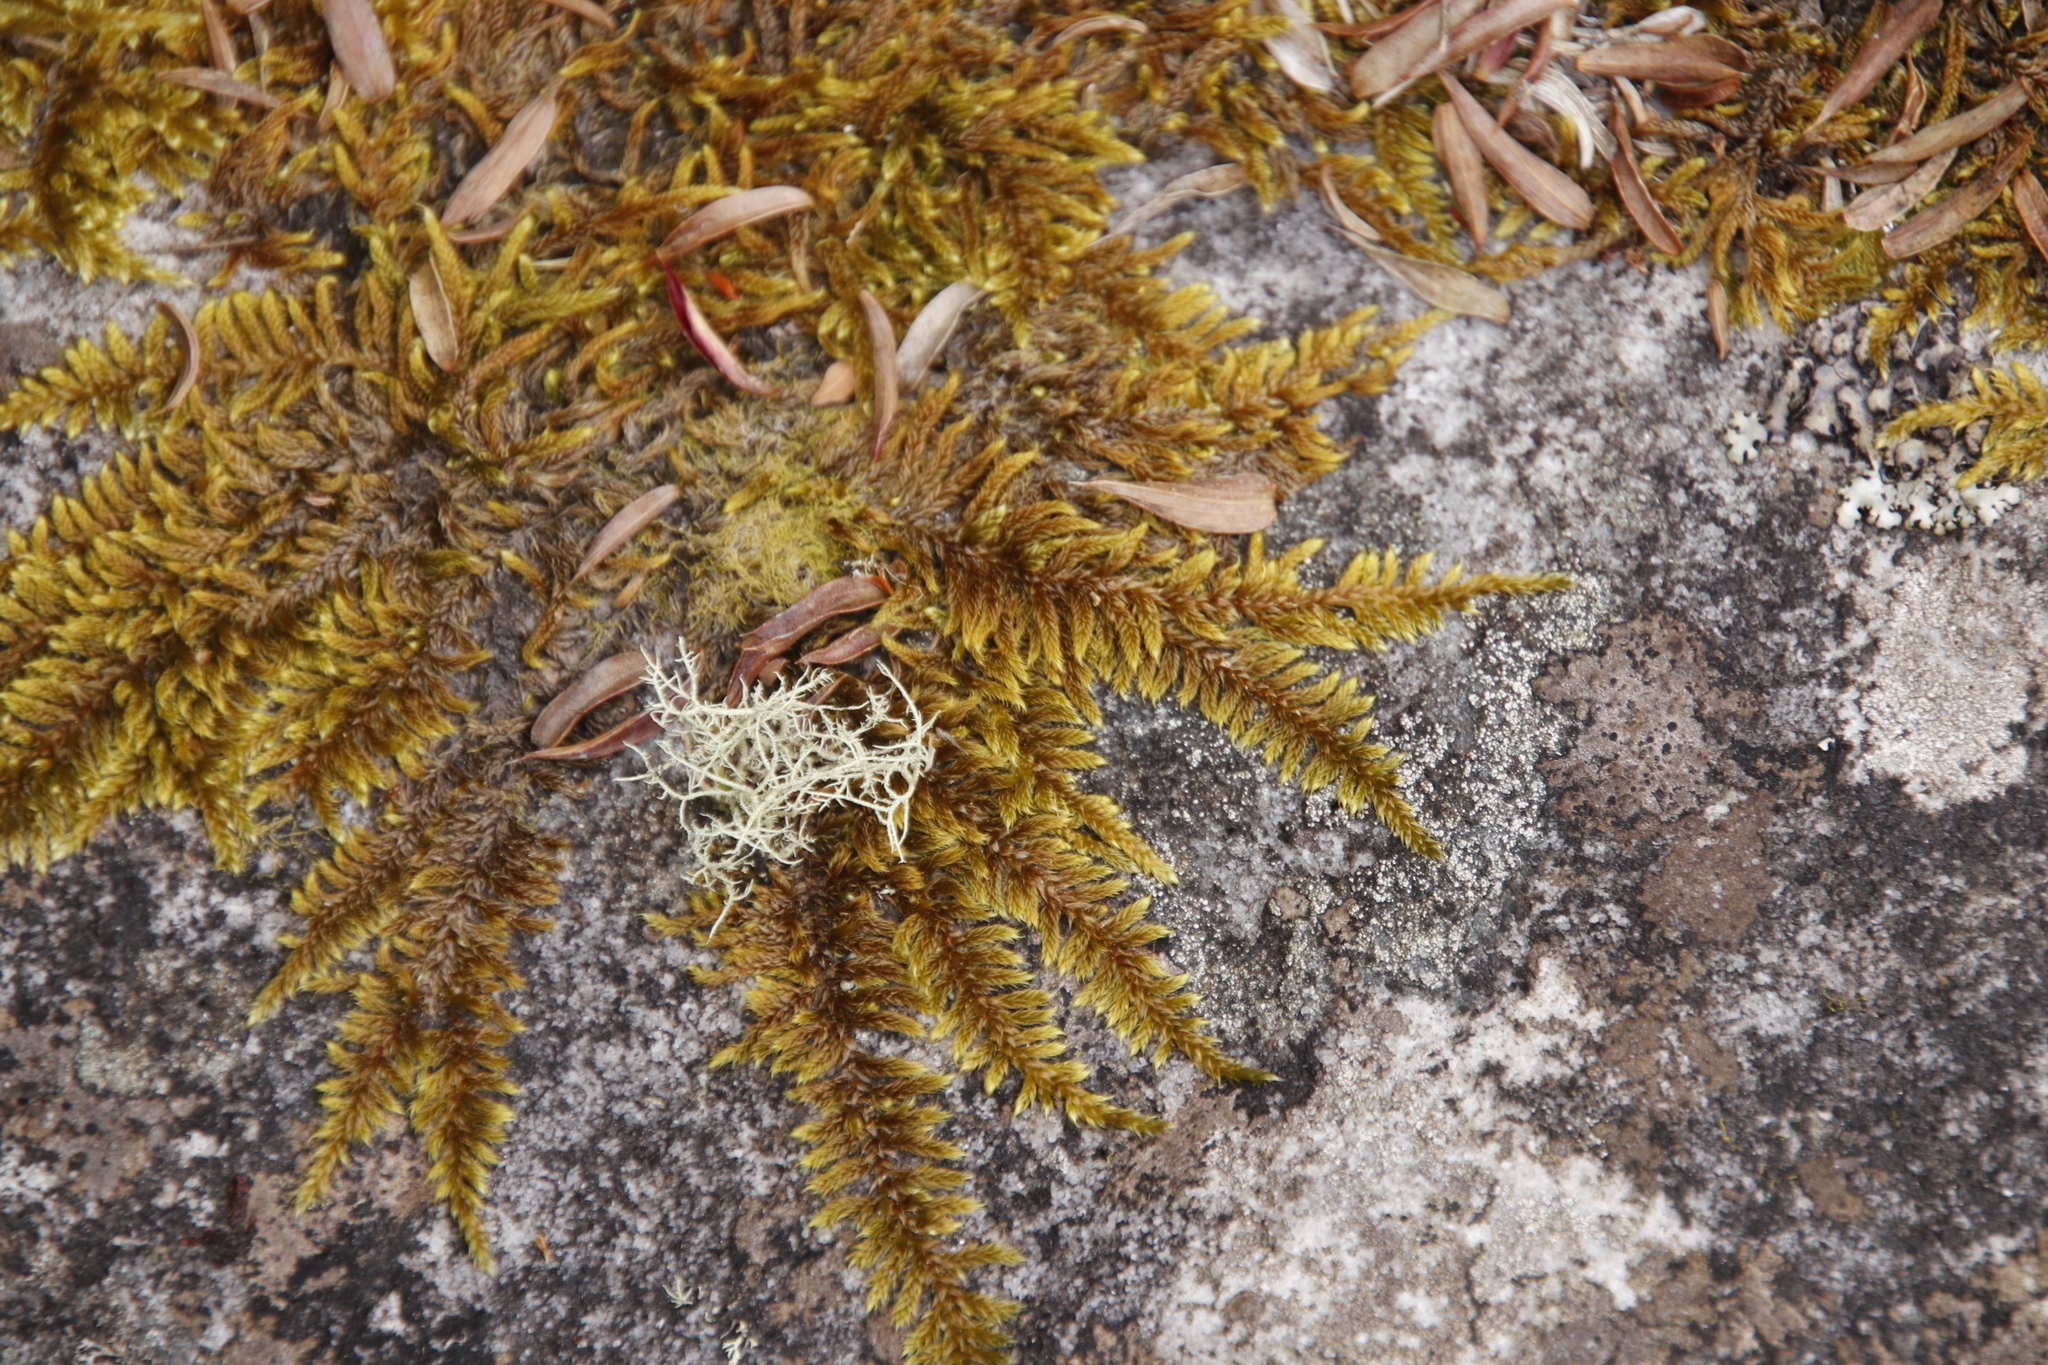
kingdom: Plantae
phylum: Bryophyta
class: Bryopsida
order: Hypnales
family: Hypnaceae
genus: Hypnum
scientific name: Hypnum cupressiforme
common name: Cypress-leaved plait-moss
